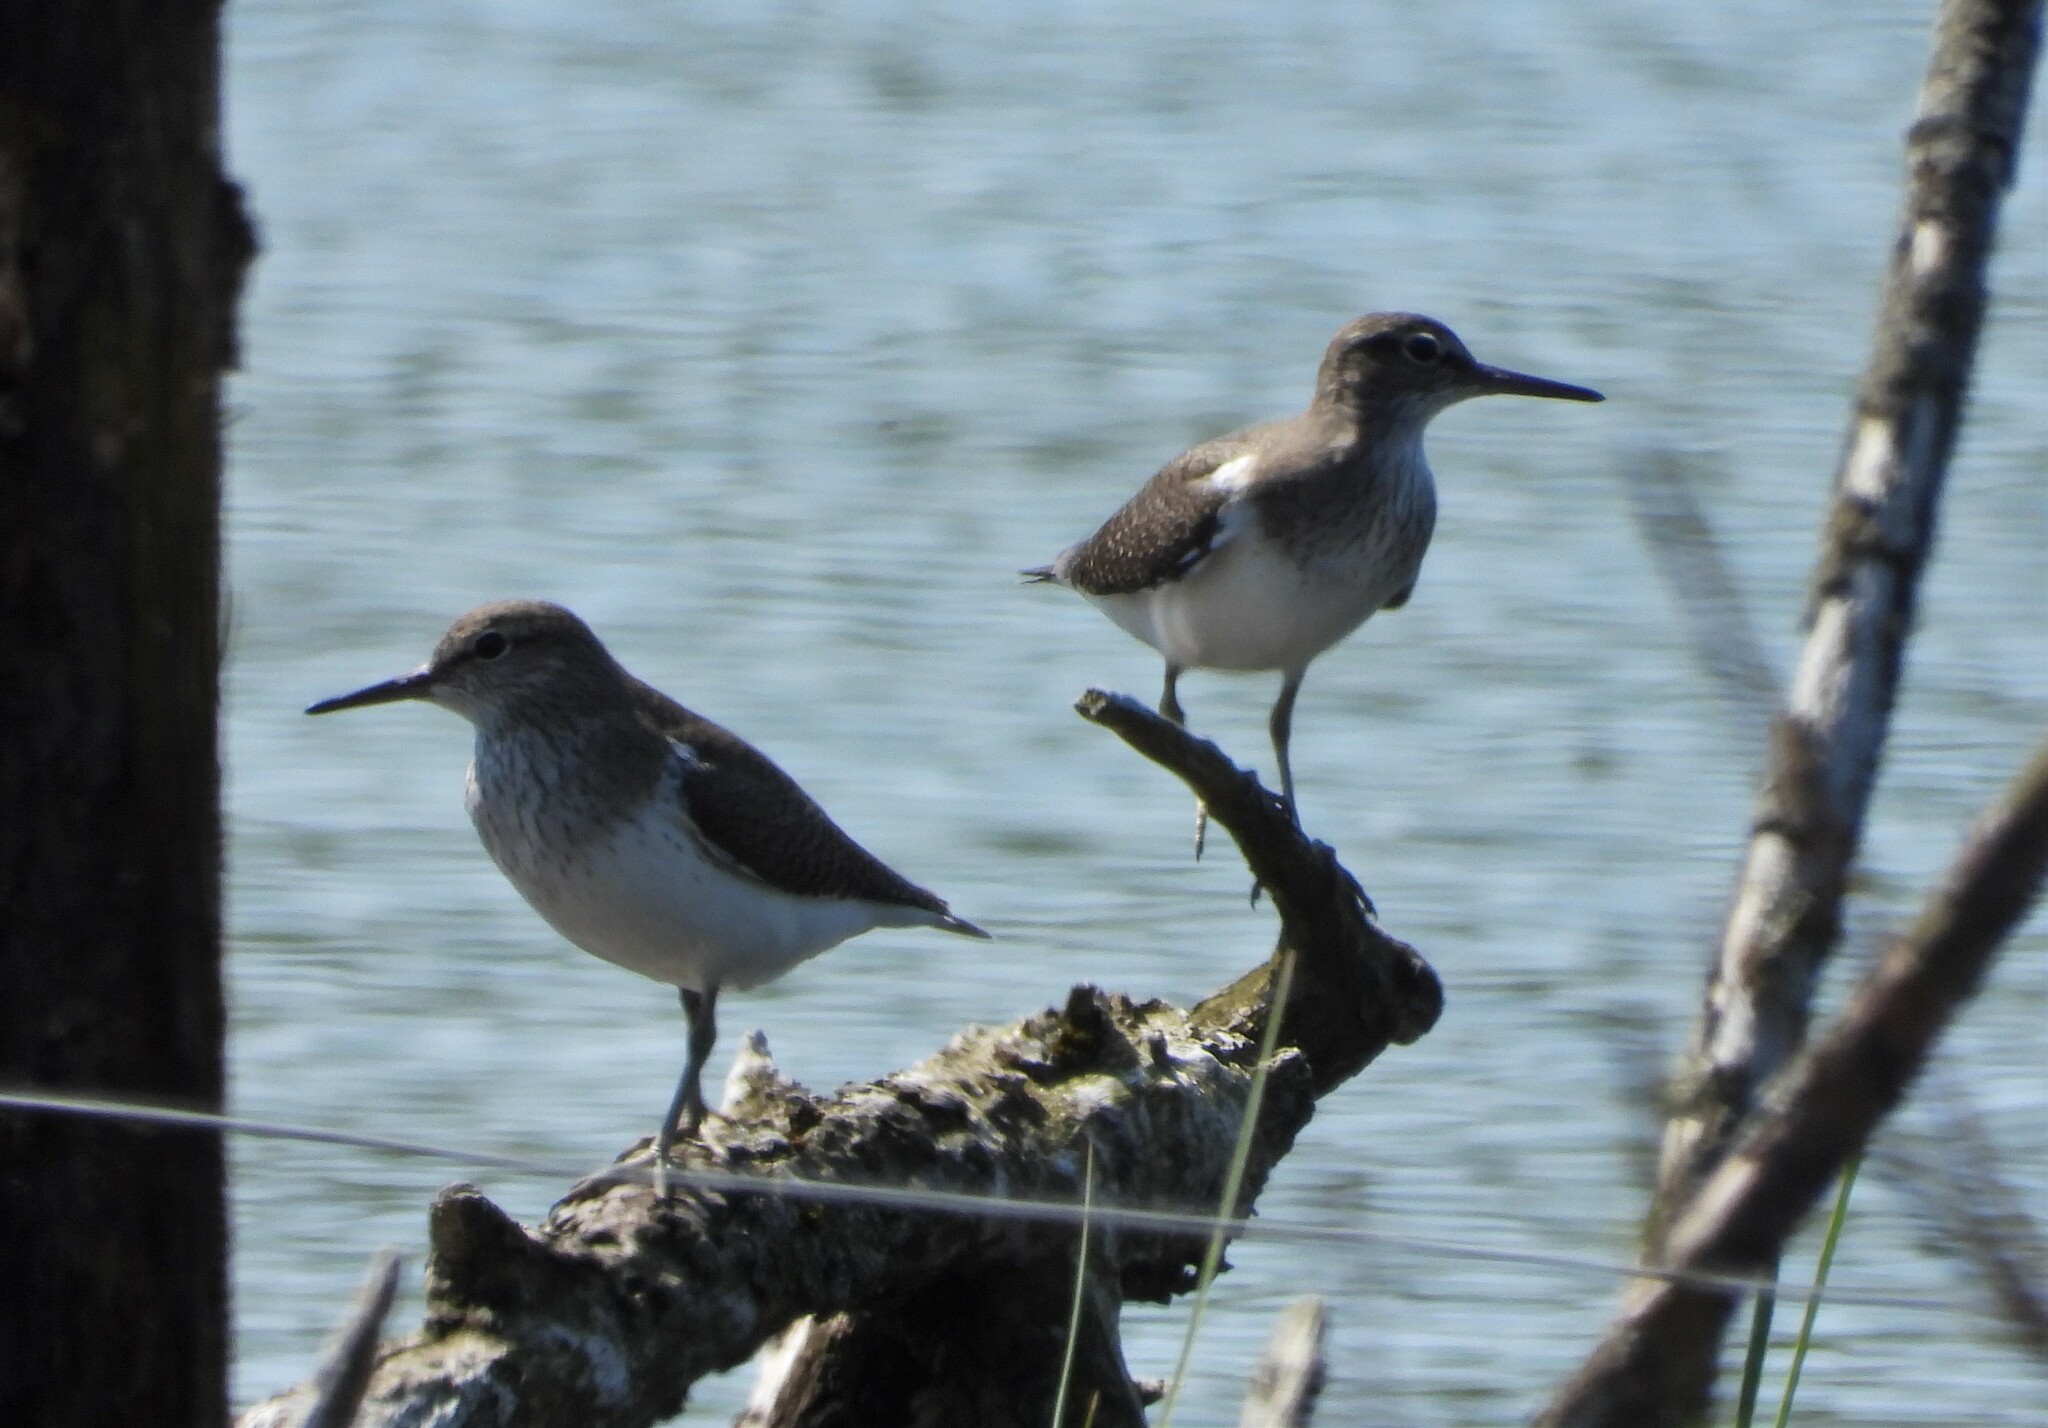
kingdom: Animalia
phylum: Chordata
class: Aves
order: Charadriiformes
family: Scolopacidae
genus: Actitis
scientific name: Actitis hypoleucos
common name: Common sandpiper
